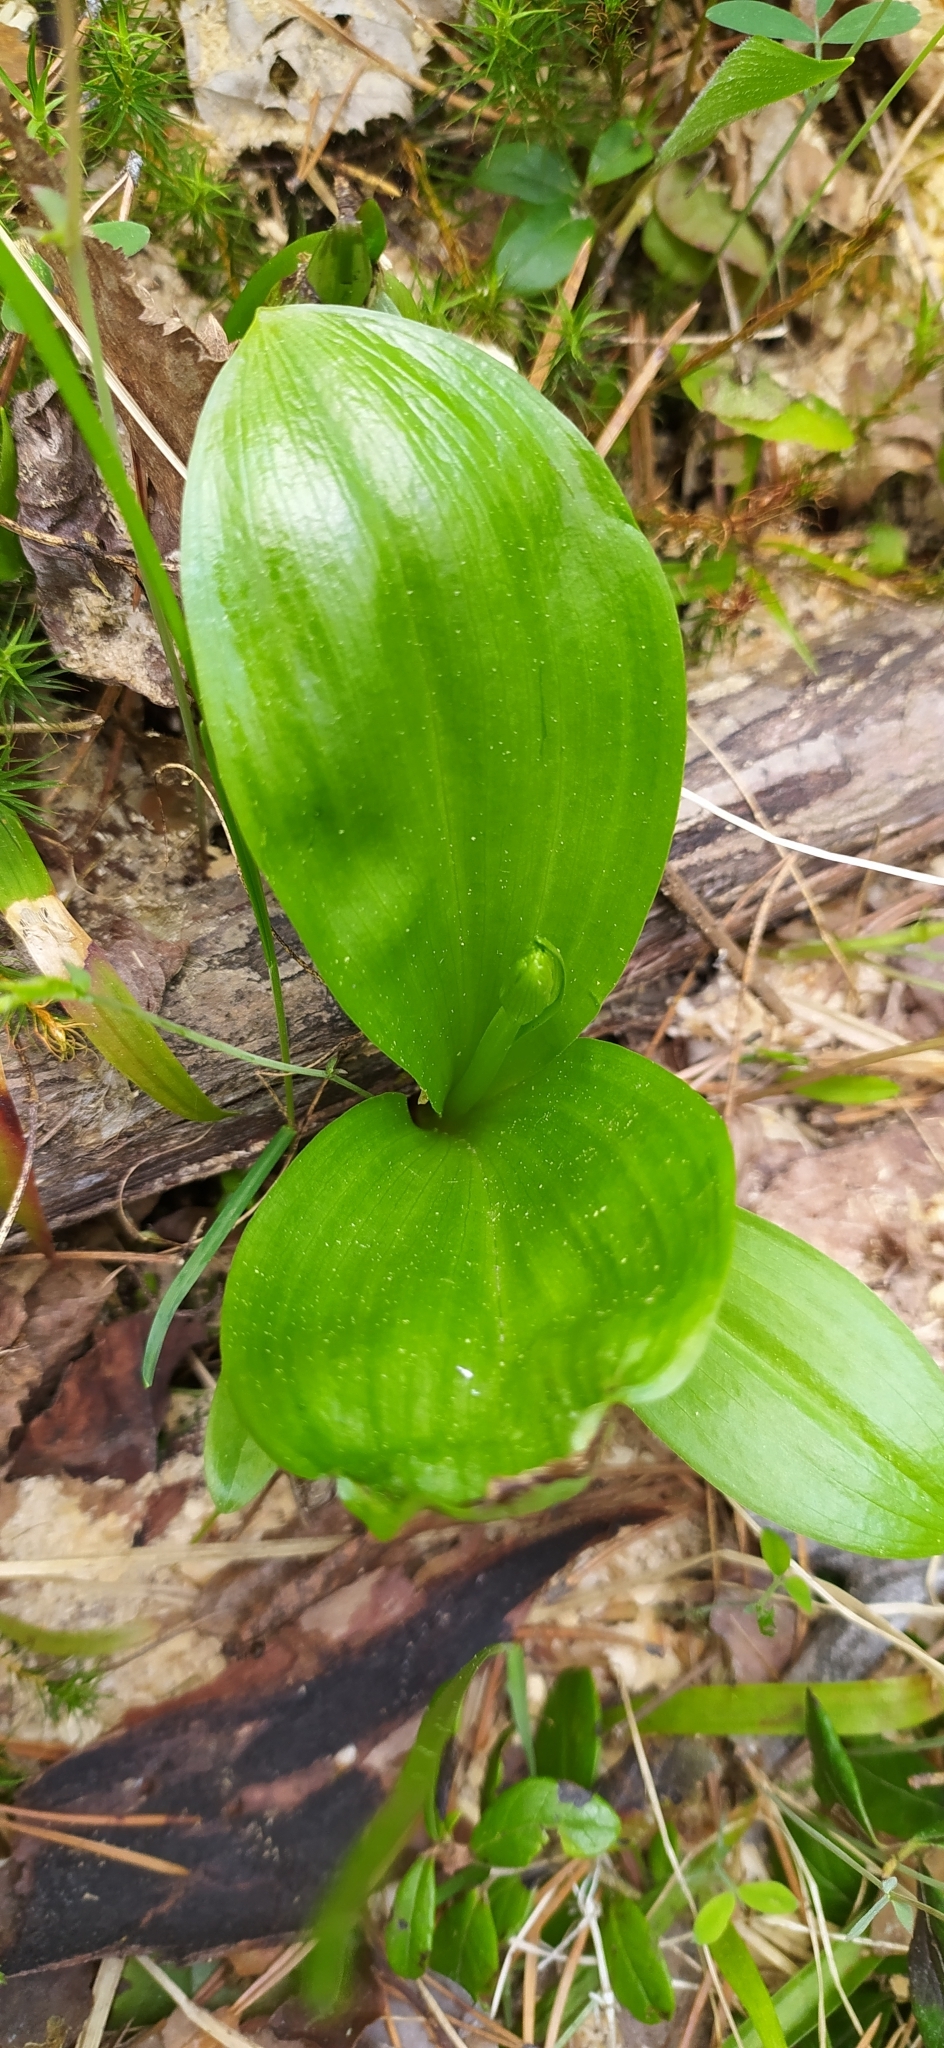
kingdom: Plantae
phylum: Tracheophyta
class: Liliopsida
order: Asparagales
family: Orchidaceae
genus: Platanthera
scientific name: Platanthera bifolia
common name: Lesser butterfly-orchid
